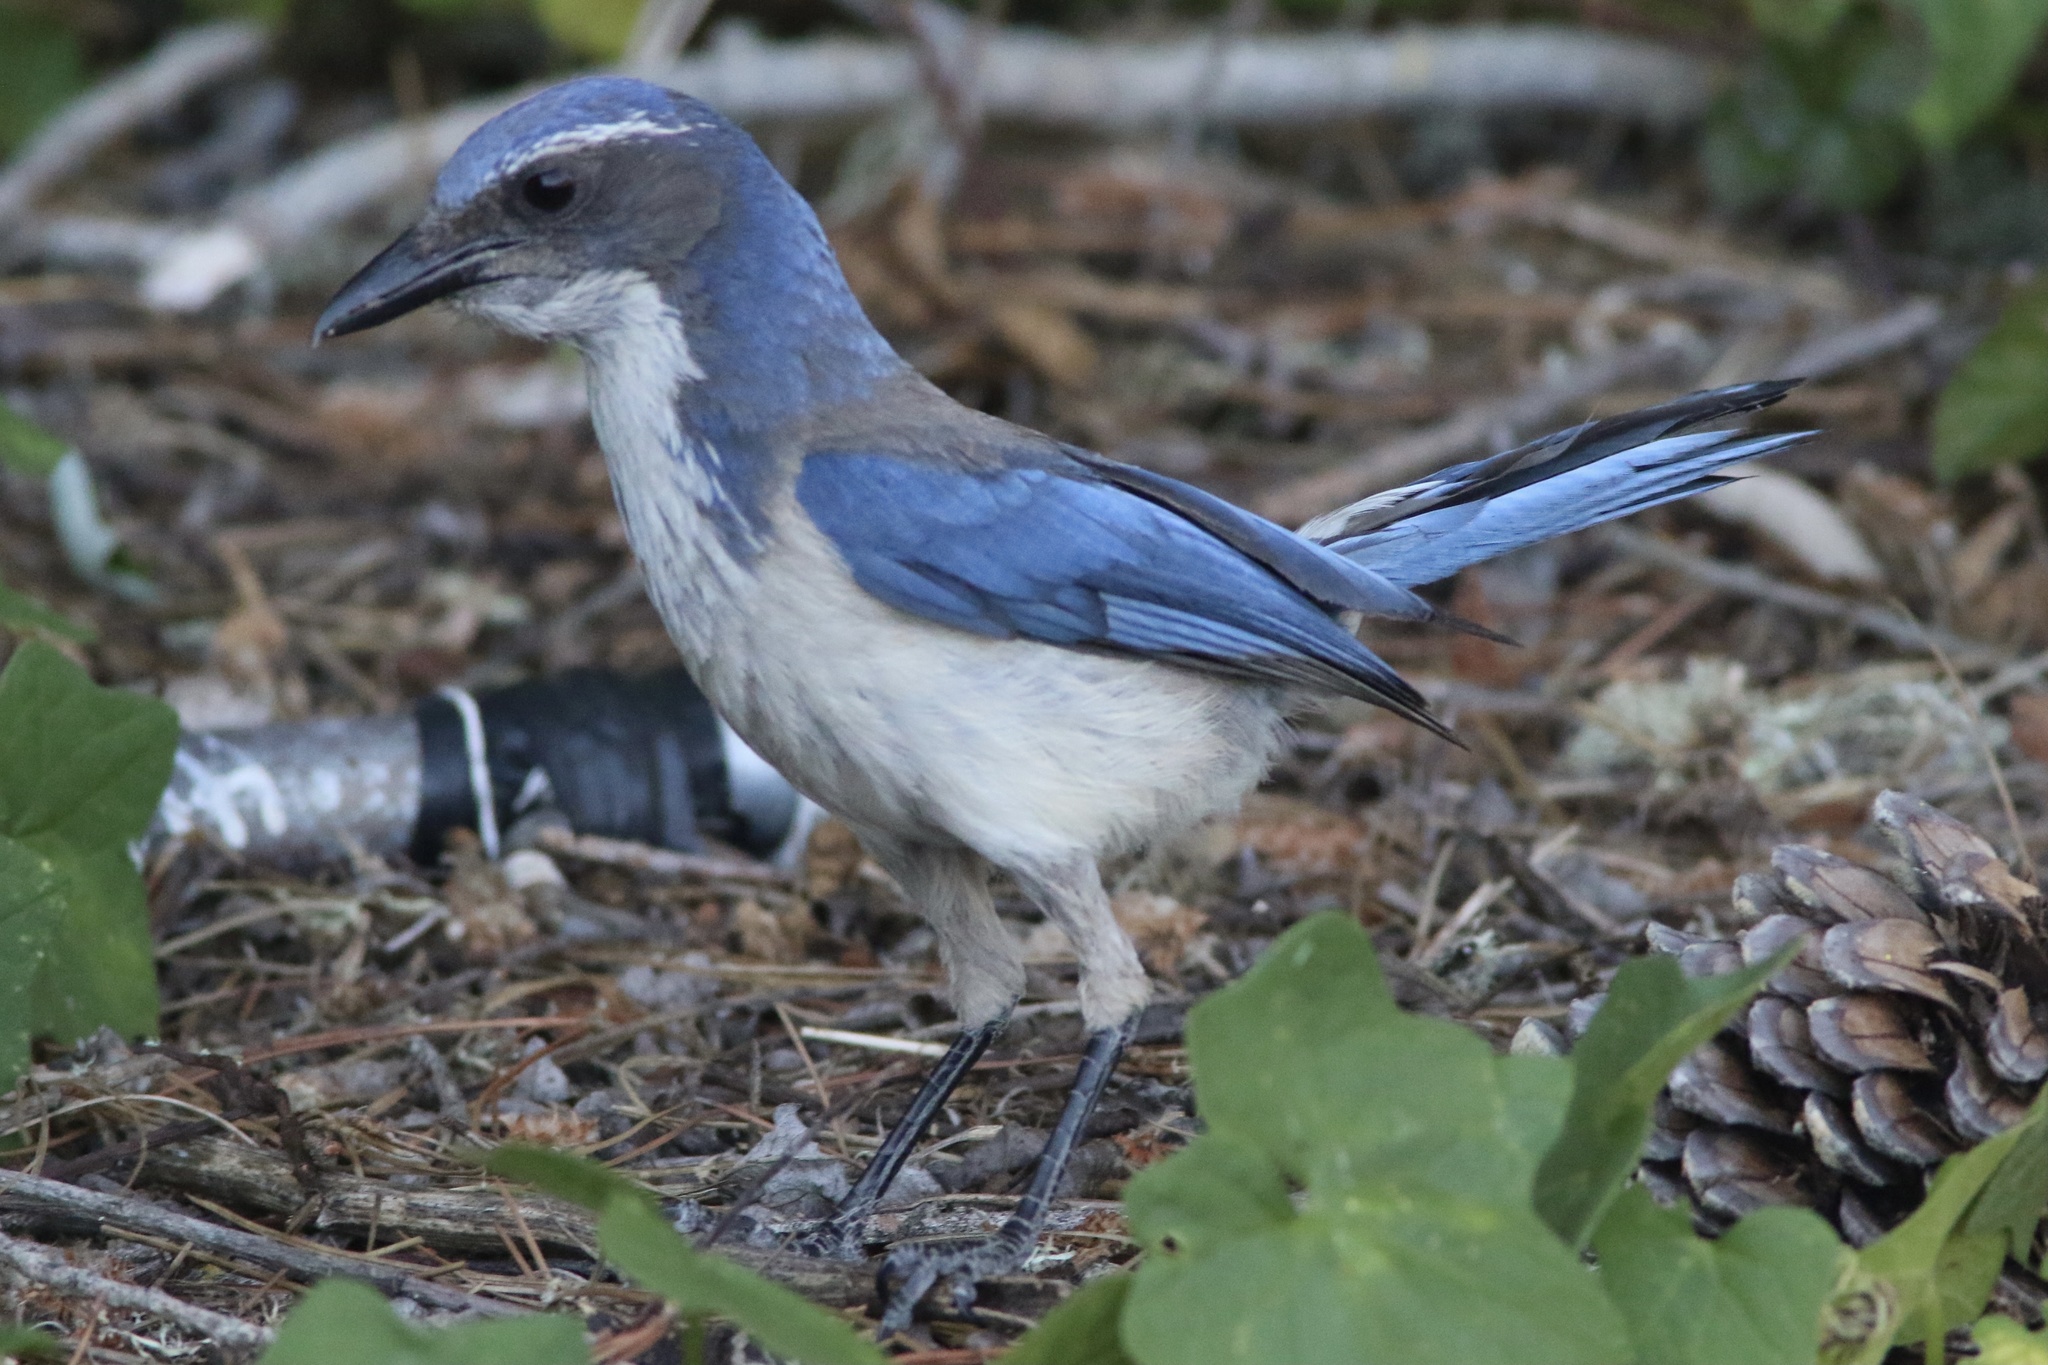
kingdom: Animalia
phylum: Chordata
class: Aves
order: Passeriformes
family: Corvidae
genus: Aphelocoma
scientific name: Aphelocoma californica
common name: California scrub-jay
